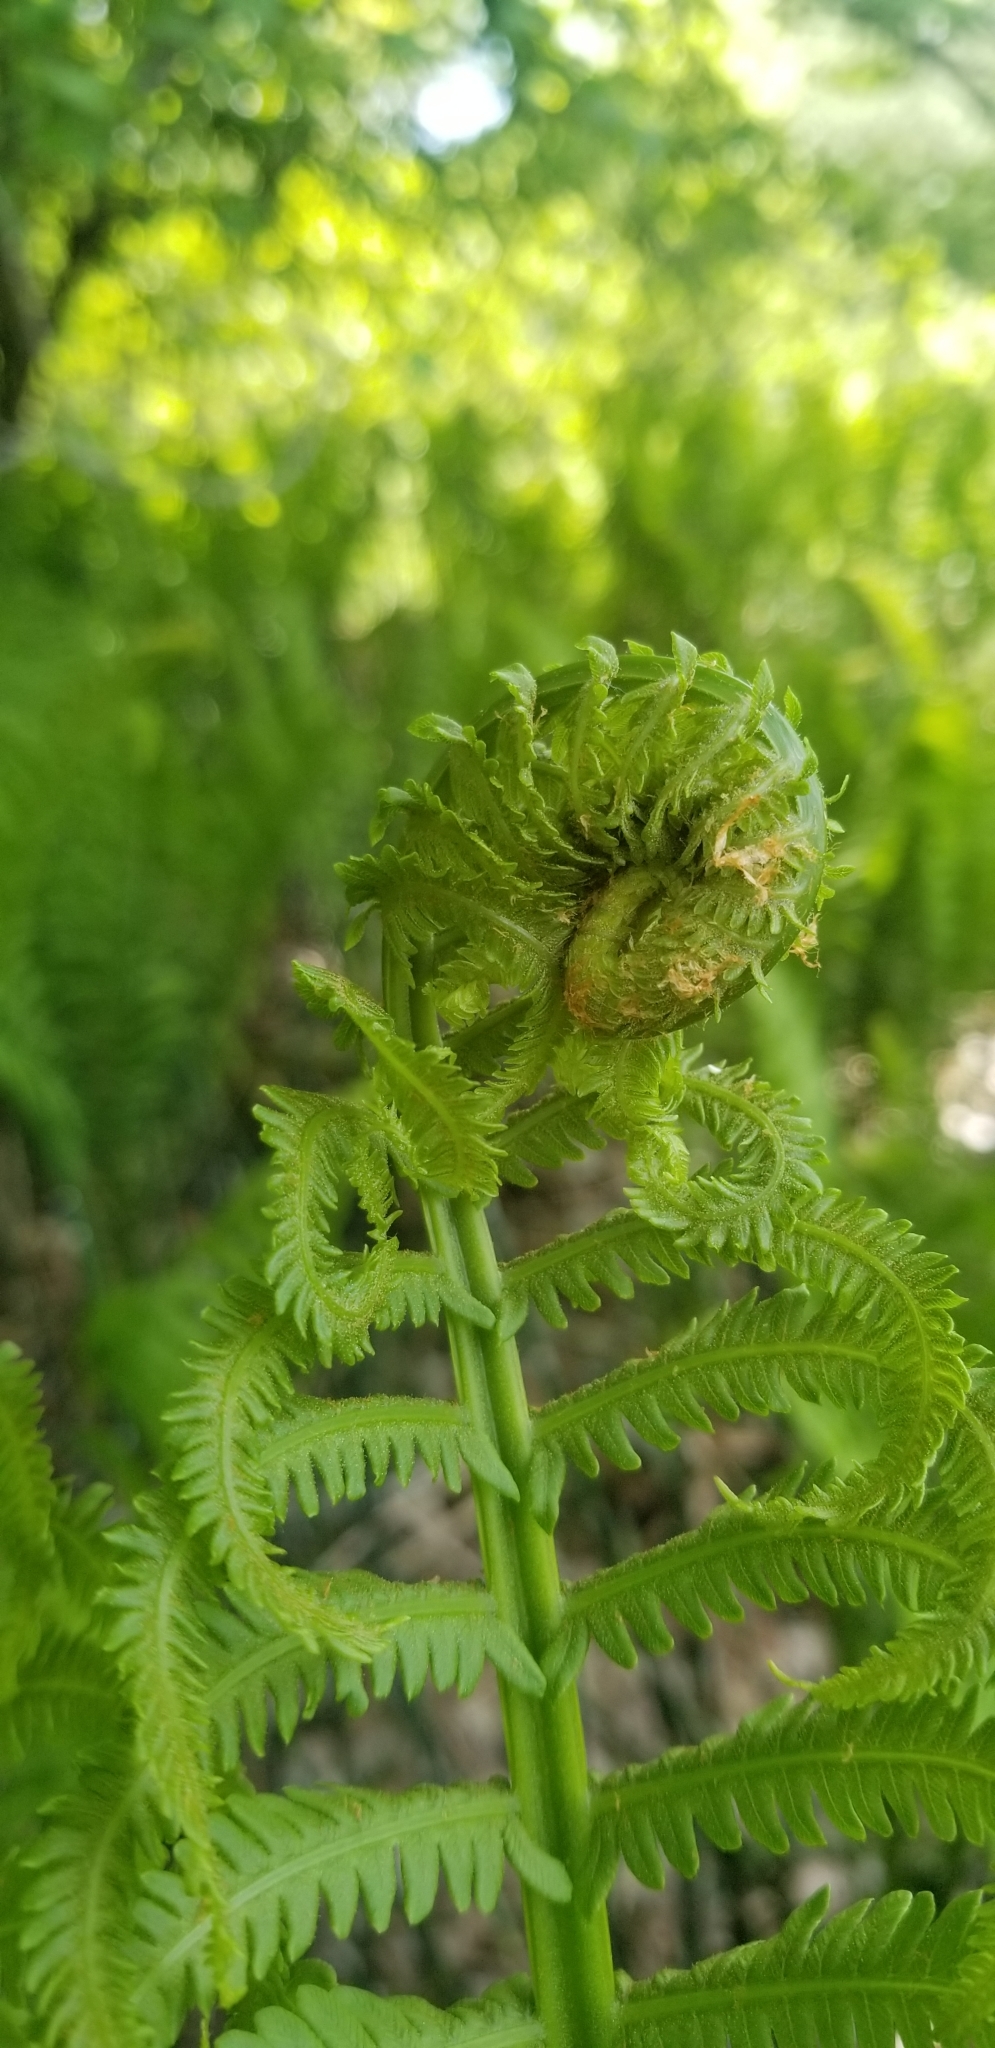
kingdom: Plantae
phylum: Tracheophyta
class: Polypodiopsida
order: Polypodiales
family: Onocleaceae
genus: Matteuccia
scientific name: Matteuccia struthiopteris
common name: Ostrich fern
